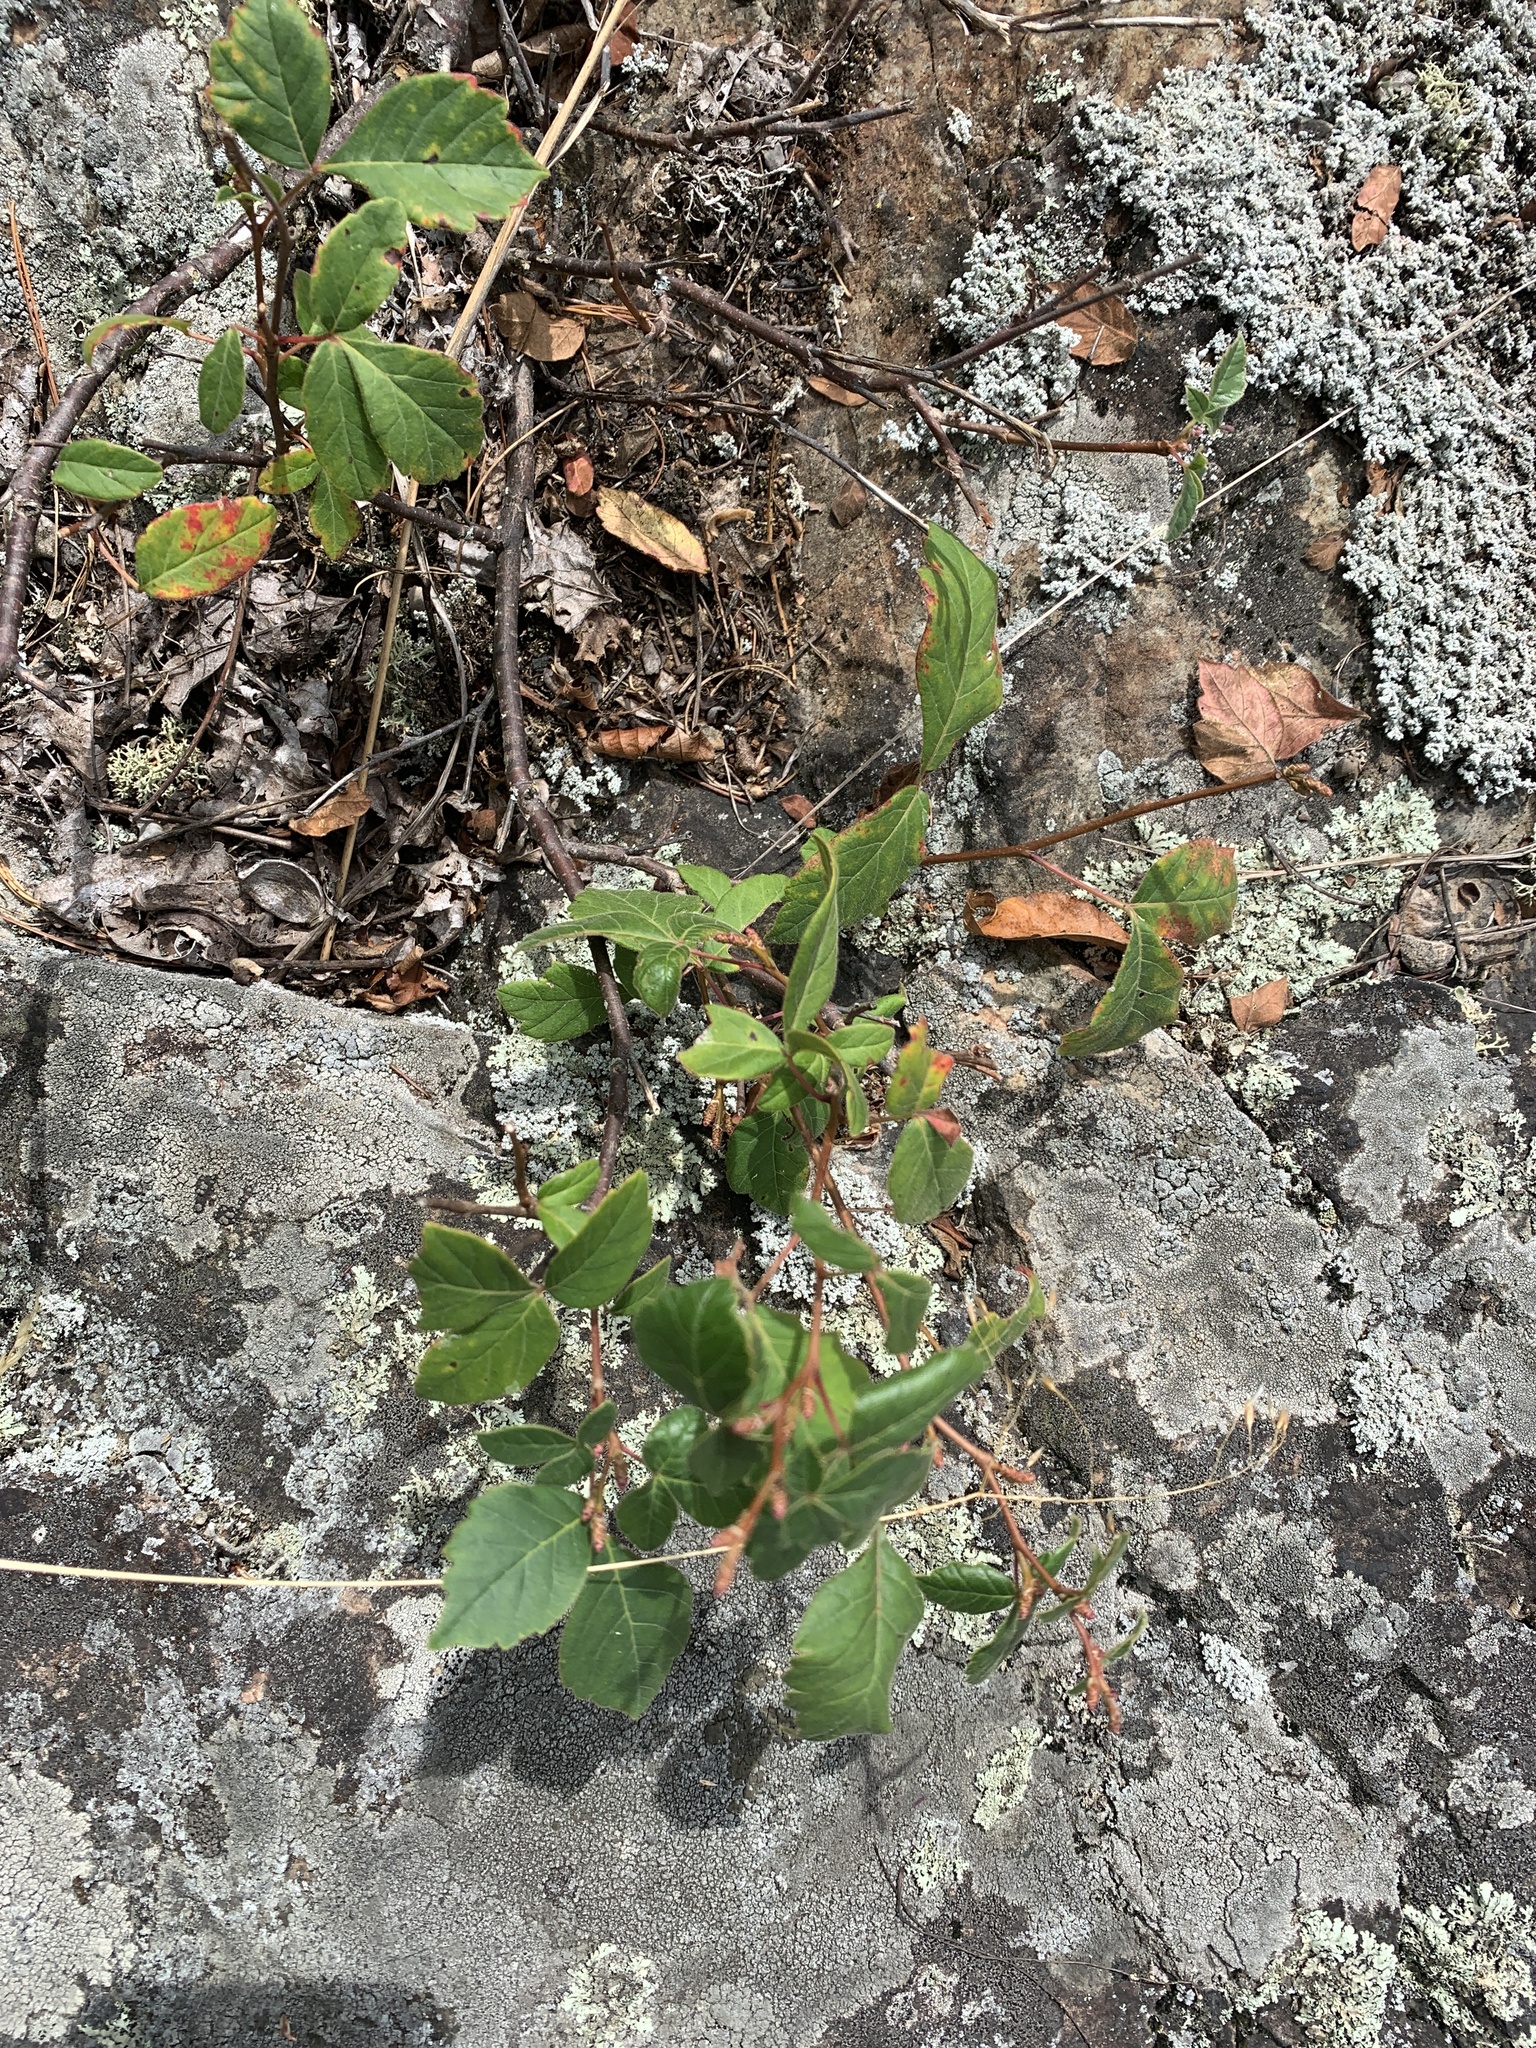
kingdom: Plantae
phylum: Tracheophyta
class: Magnoliopsida
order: Sapindales
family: Anacardiaceae
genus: Rhus
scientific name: Rhus aromatica
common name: Aromatic sumac
